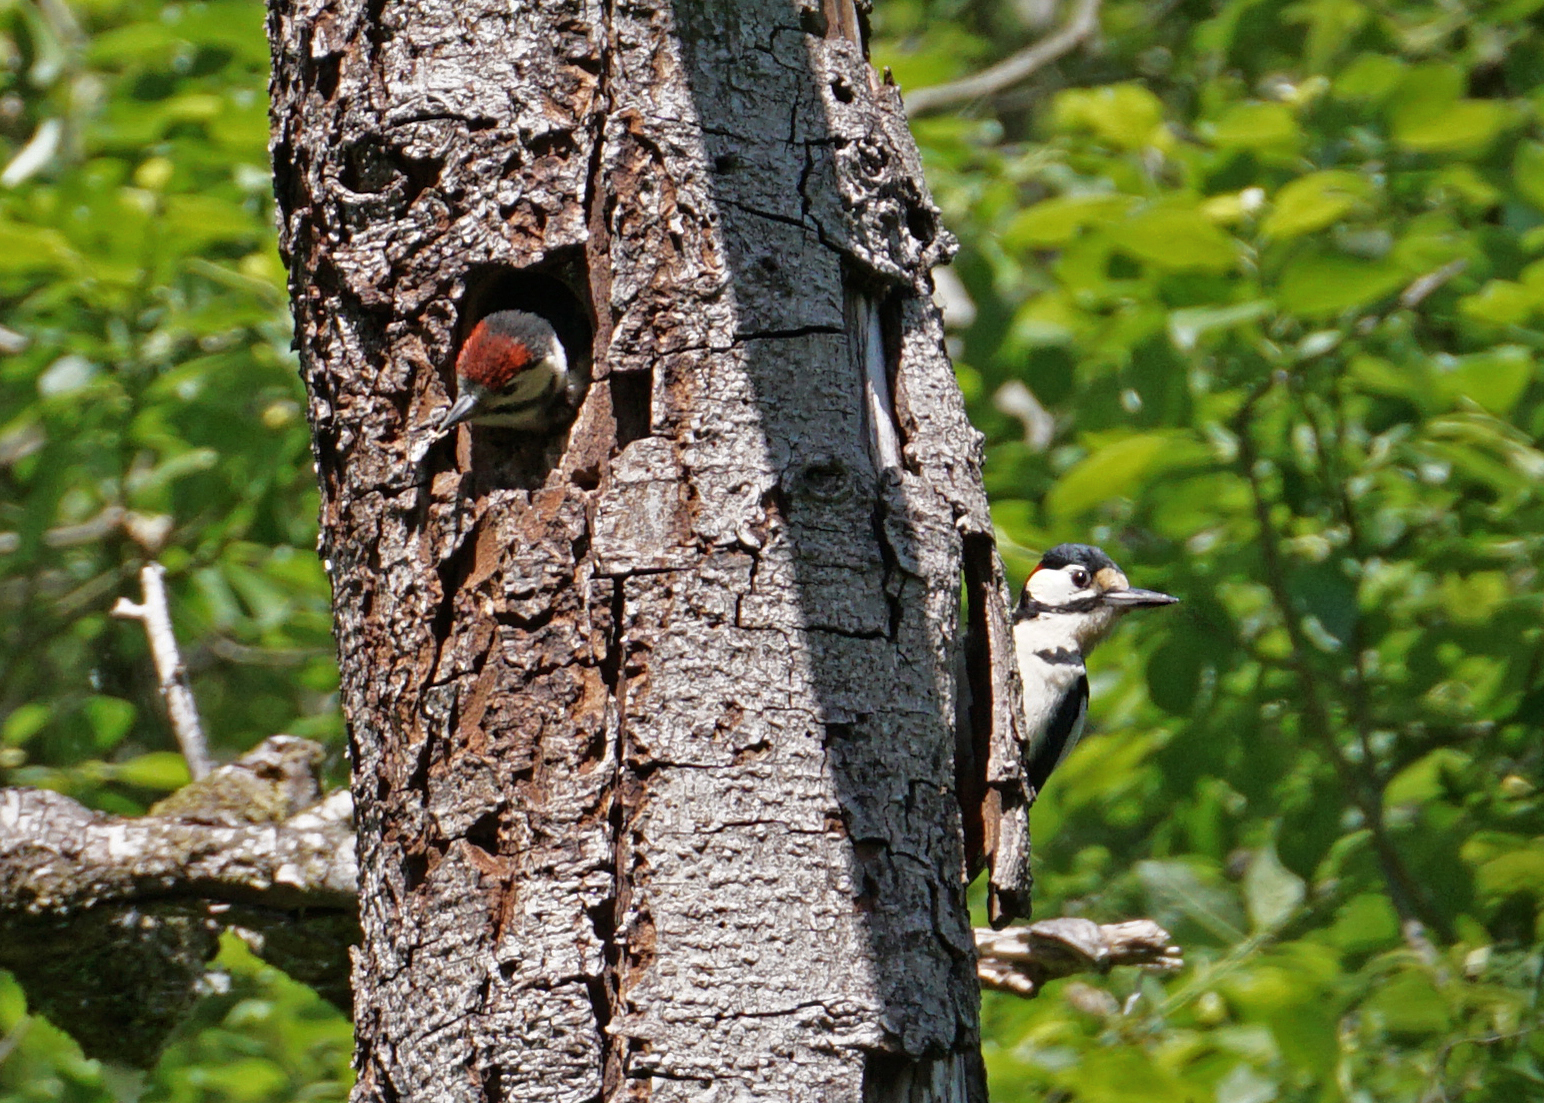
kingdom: Animalia
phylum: Chordata
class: Aves
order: Piciformes
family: Picidae
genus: Dendrocopos
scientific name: Dendrocopos major
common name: Great spotted woodpecker
